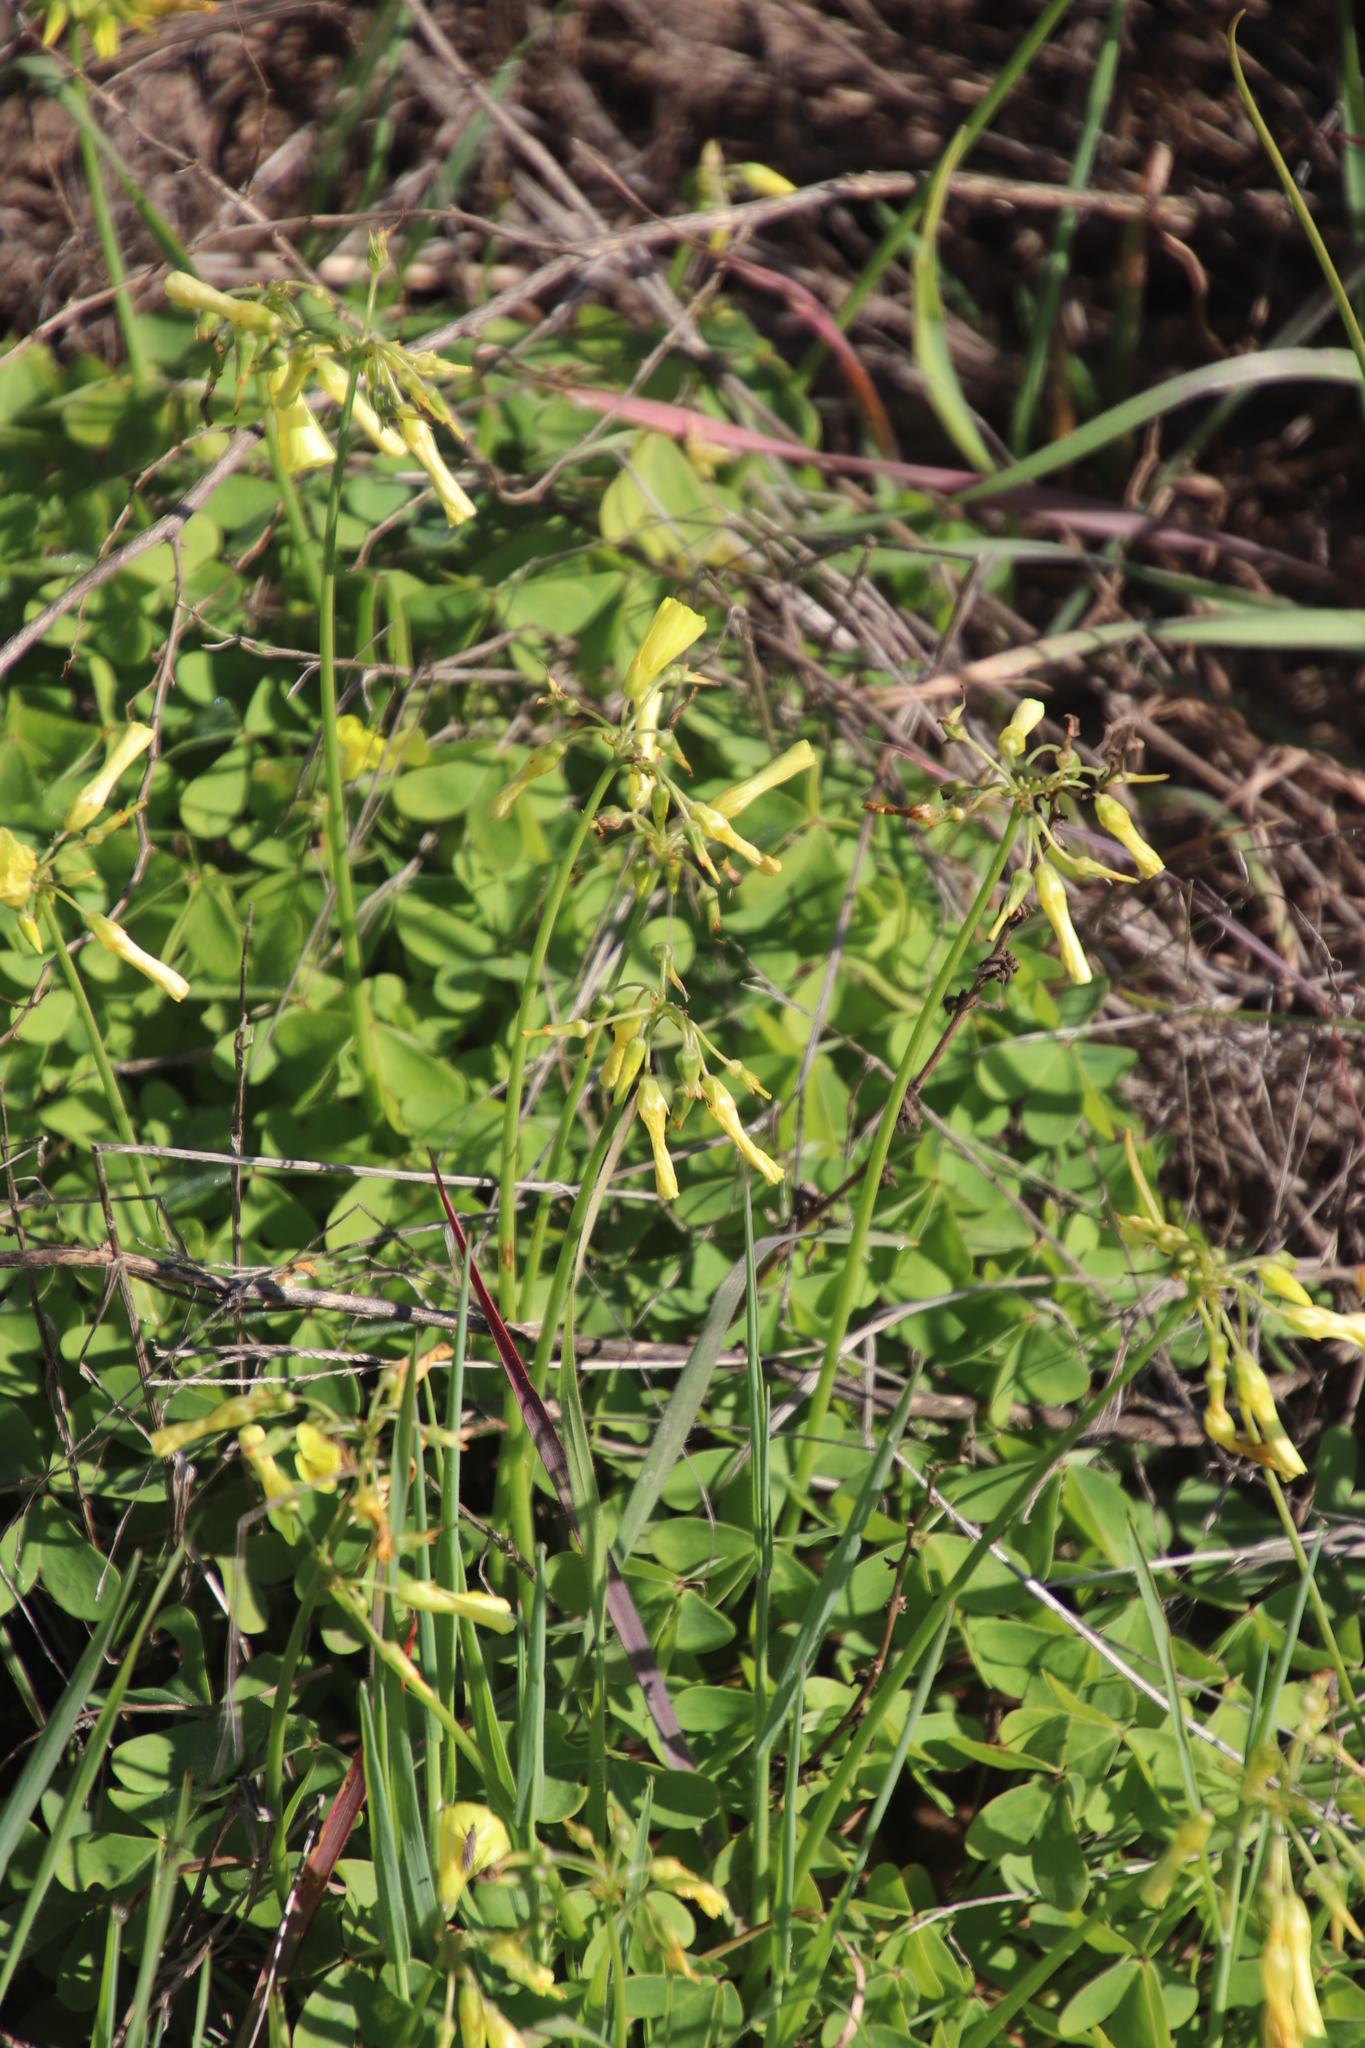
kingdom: Plantae
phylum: Tracheophyta
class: Magnoliopsida
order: Oxalidales
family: Oxalidaceae
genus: Oxalis
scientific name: Oxalis pes-caprae
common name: Bermuda-buttercup
